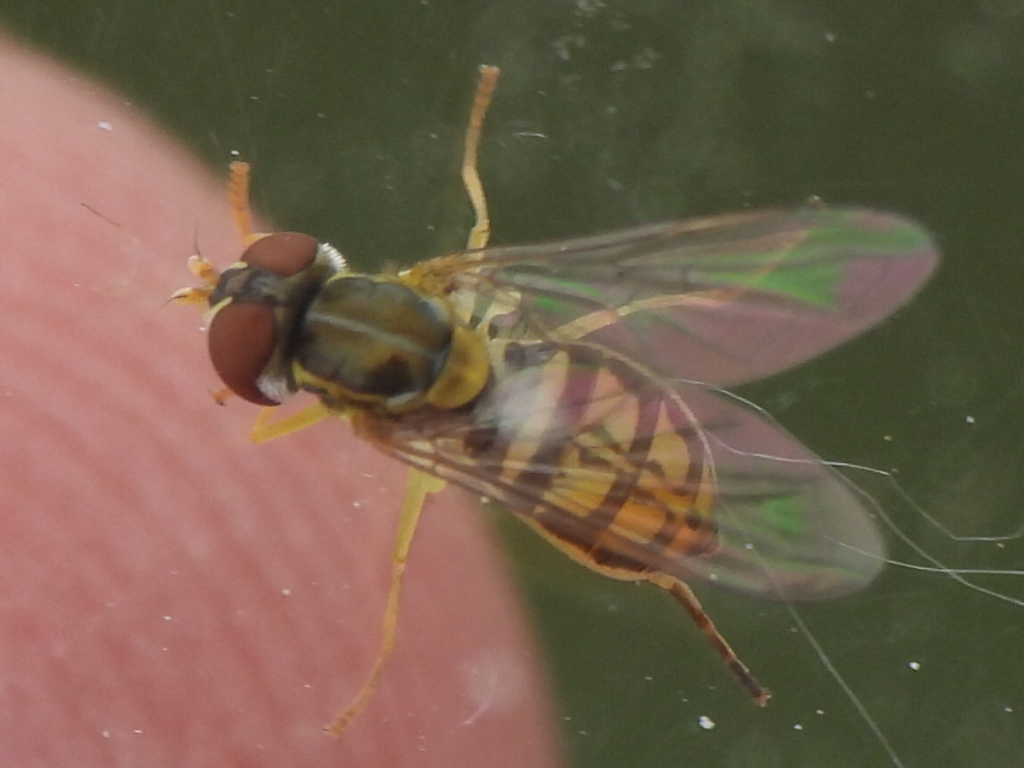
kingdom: Animalia
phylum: Arthropoda
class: Insecta
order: Diptera
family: Syrphidae
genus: Toxomerus
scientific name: Toxomerus marginatus
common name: Syrphid fly
